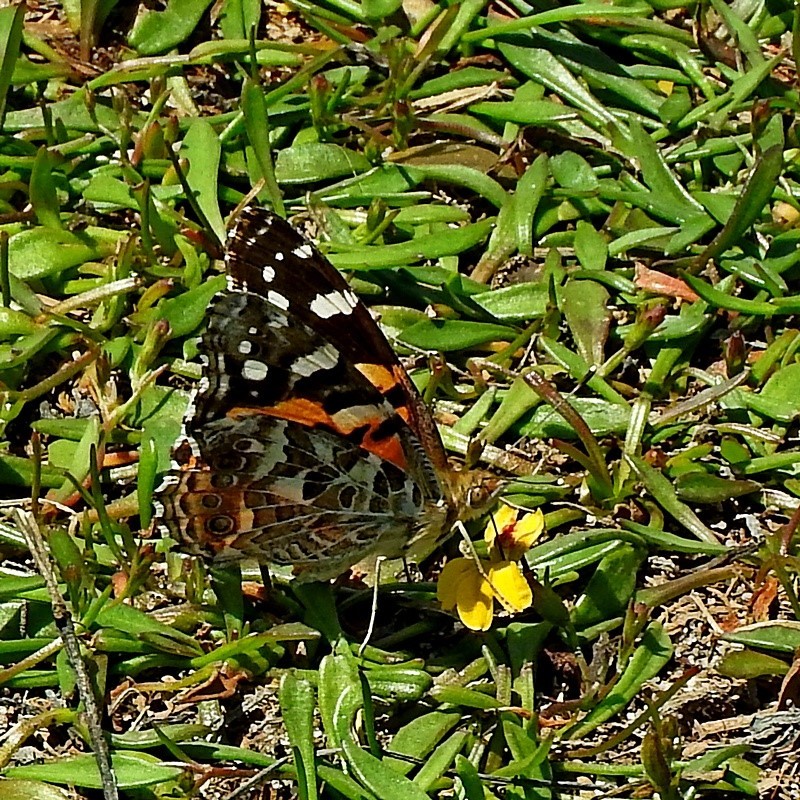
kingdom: Animalia
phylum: Arthropoda
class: Insecta
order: Lepidoptera
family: Nymphalidae
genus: Vanessa
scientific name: Vanessa kershawi
